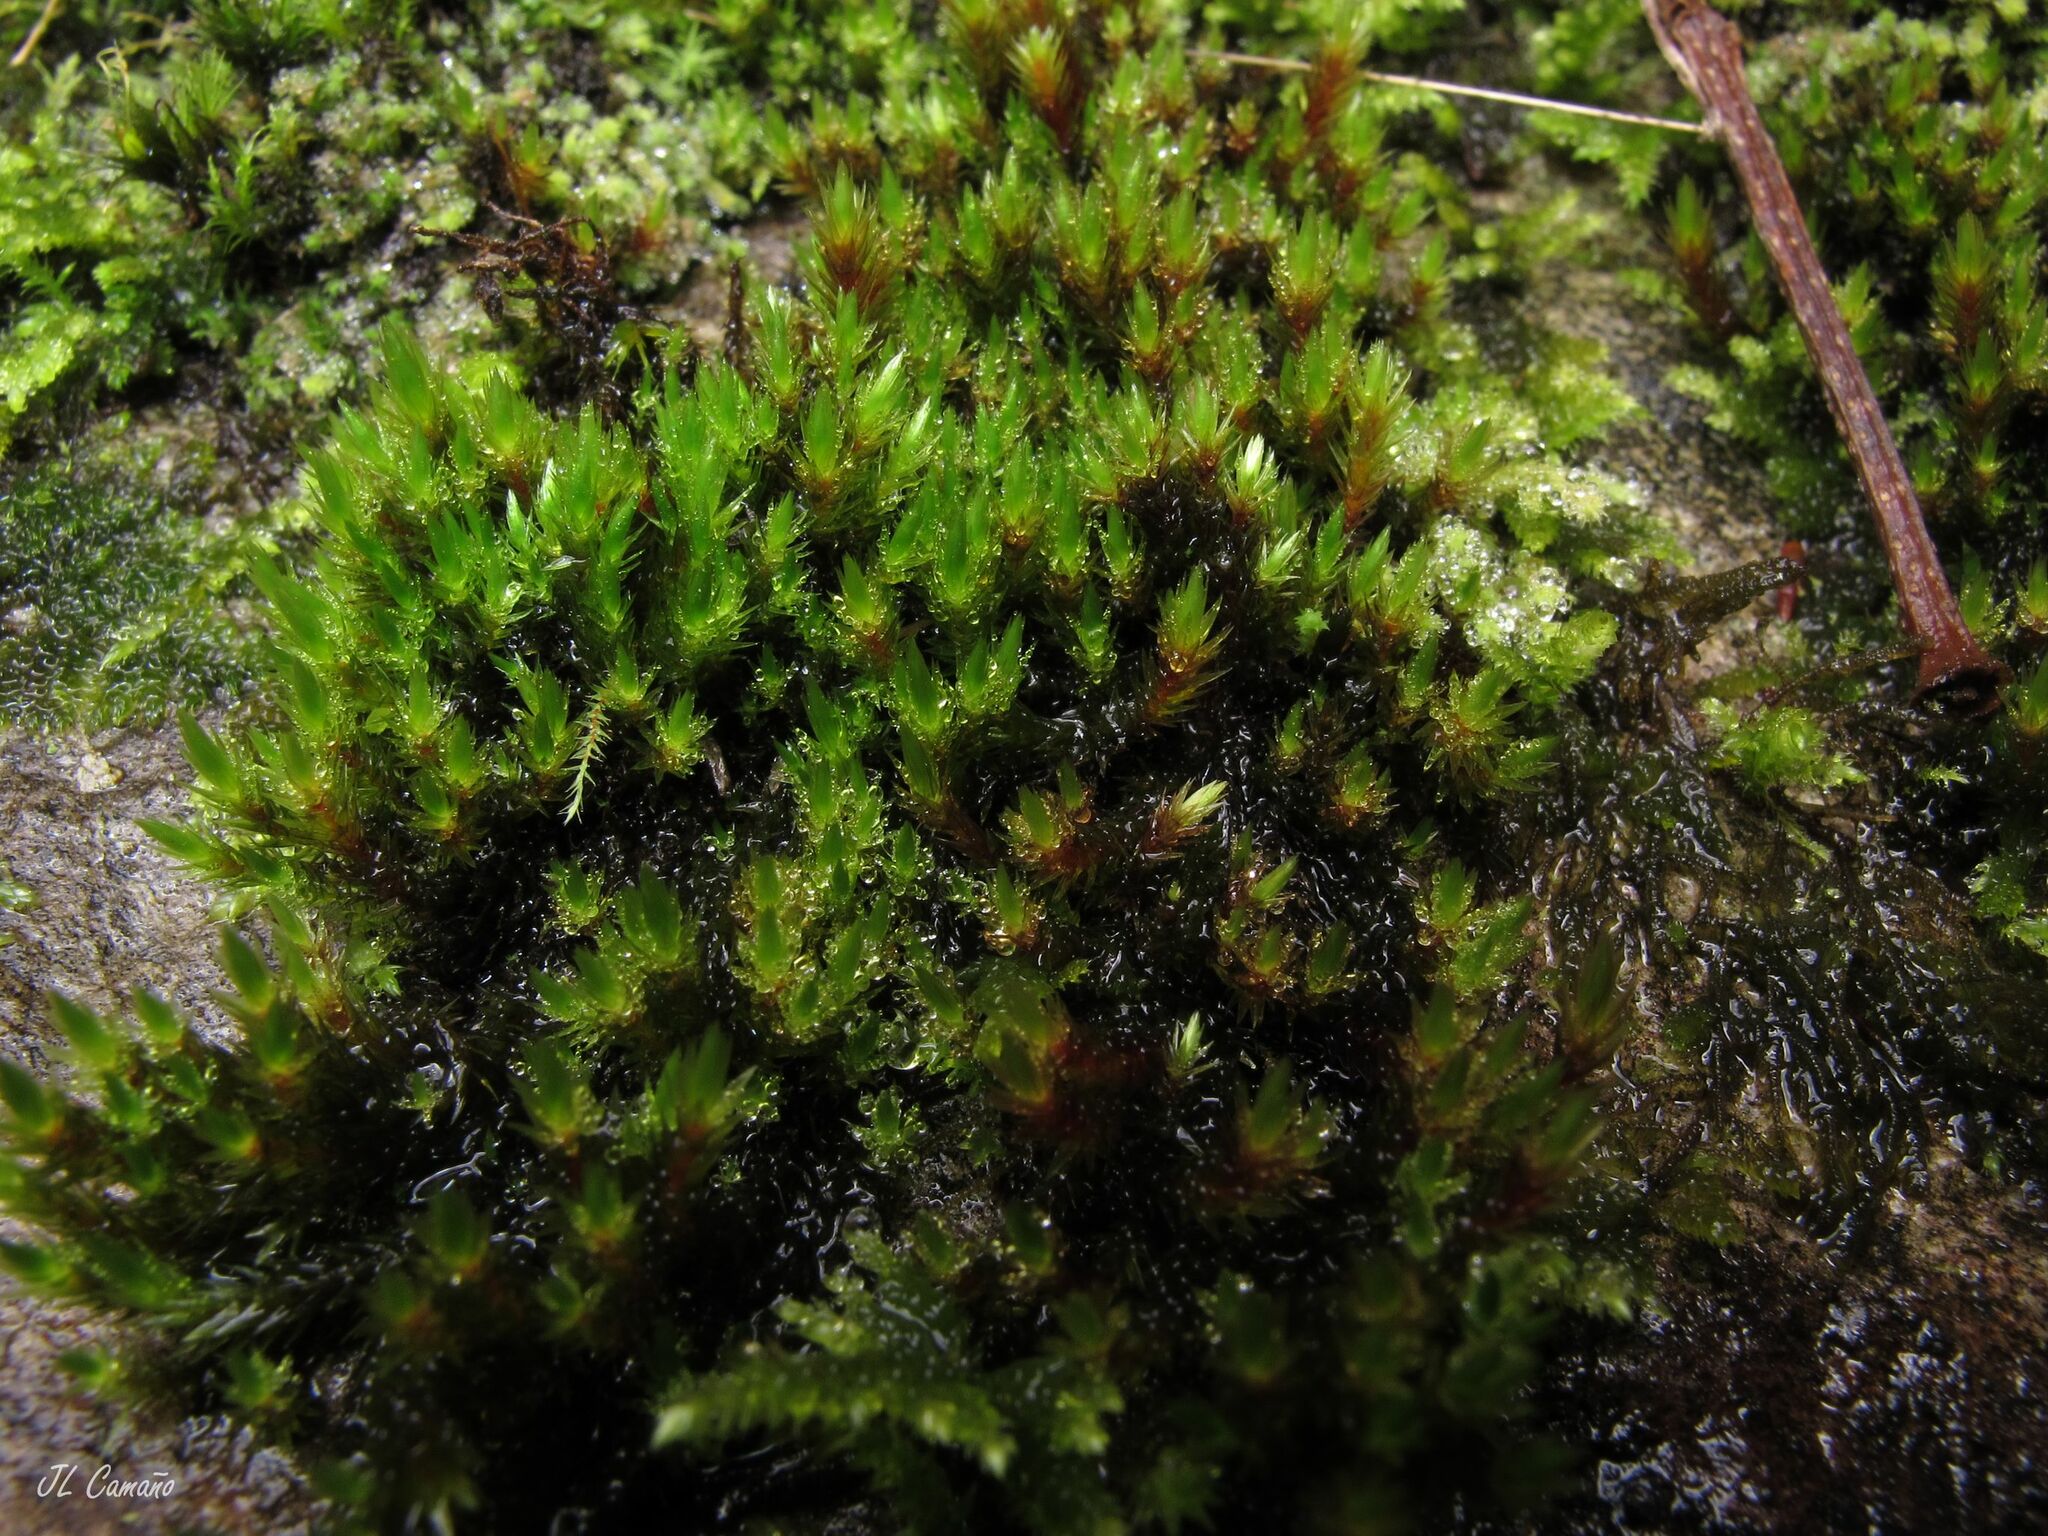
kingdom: Plantae
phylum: Bryophyta
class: Bryopsida
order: Bryales
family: Bryaceae
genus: Imbribryum
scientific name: Imbribryum alpinum
